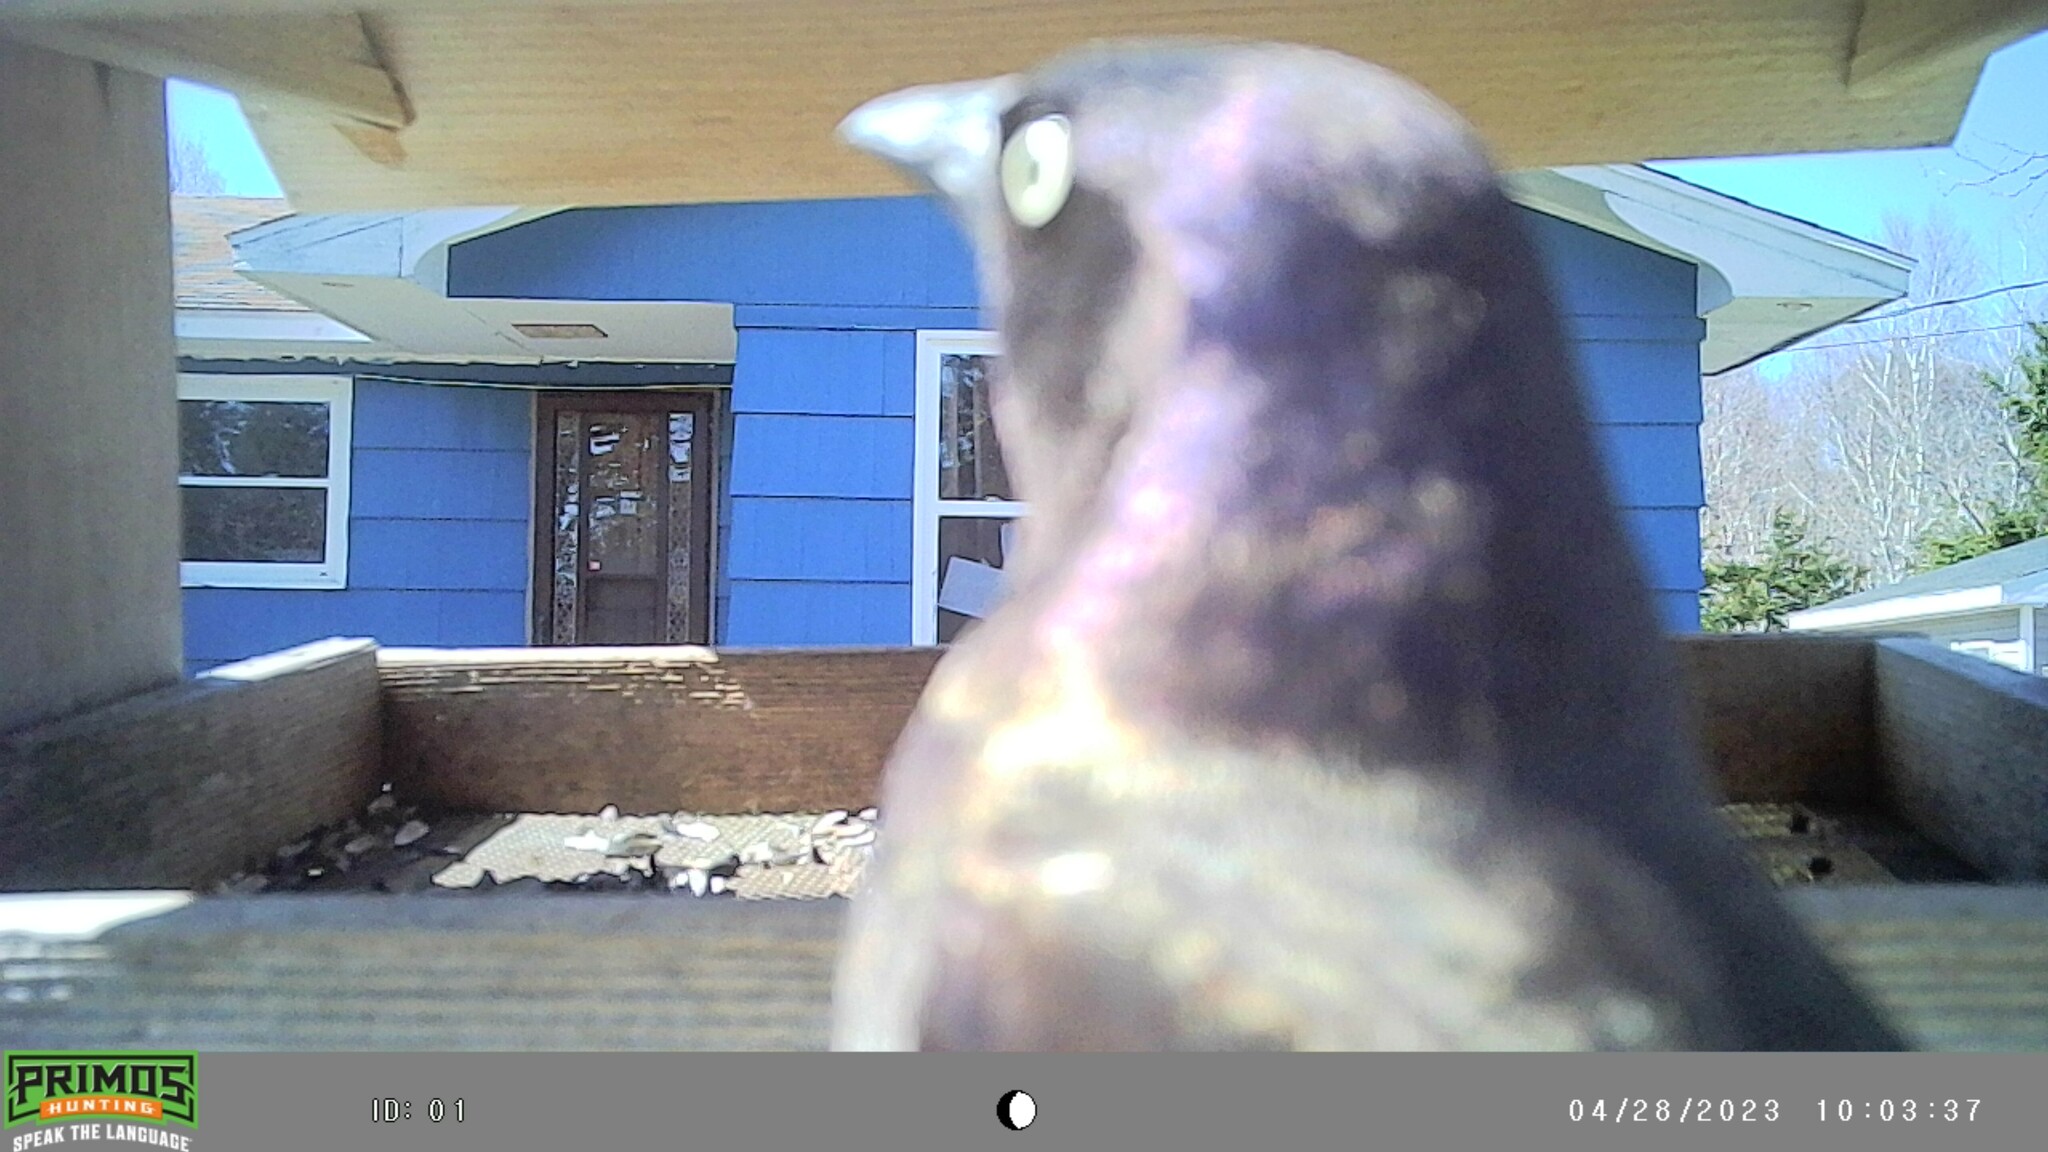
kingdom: Animalia
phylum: Chordata
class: Aves
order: Passeriformes
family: Icteridae
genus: Quiscalus
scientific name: Quiscalus quiscula
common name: Common grackle
